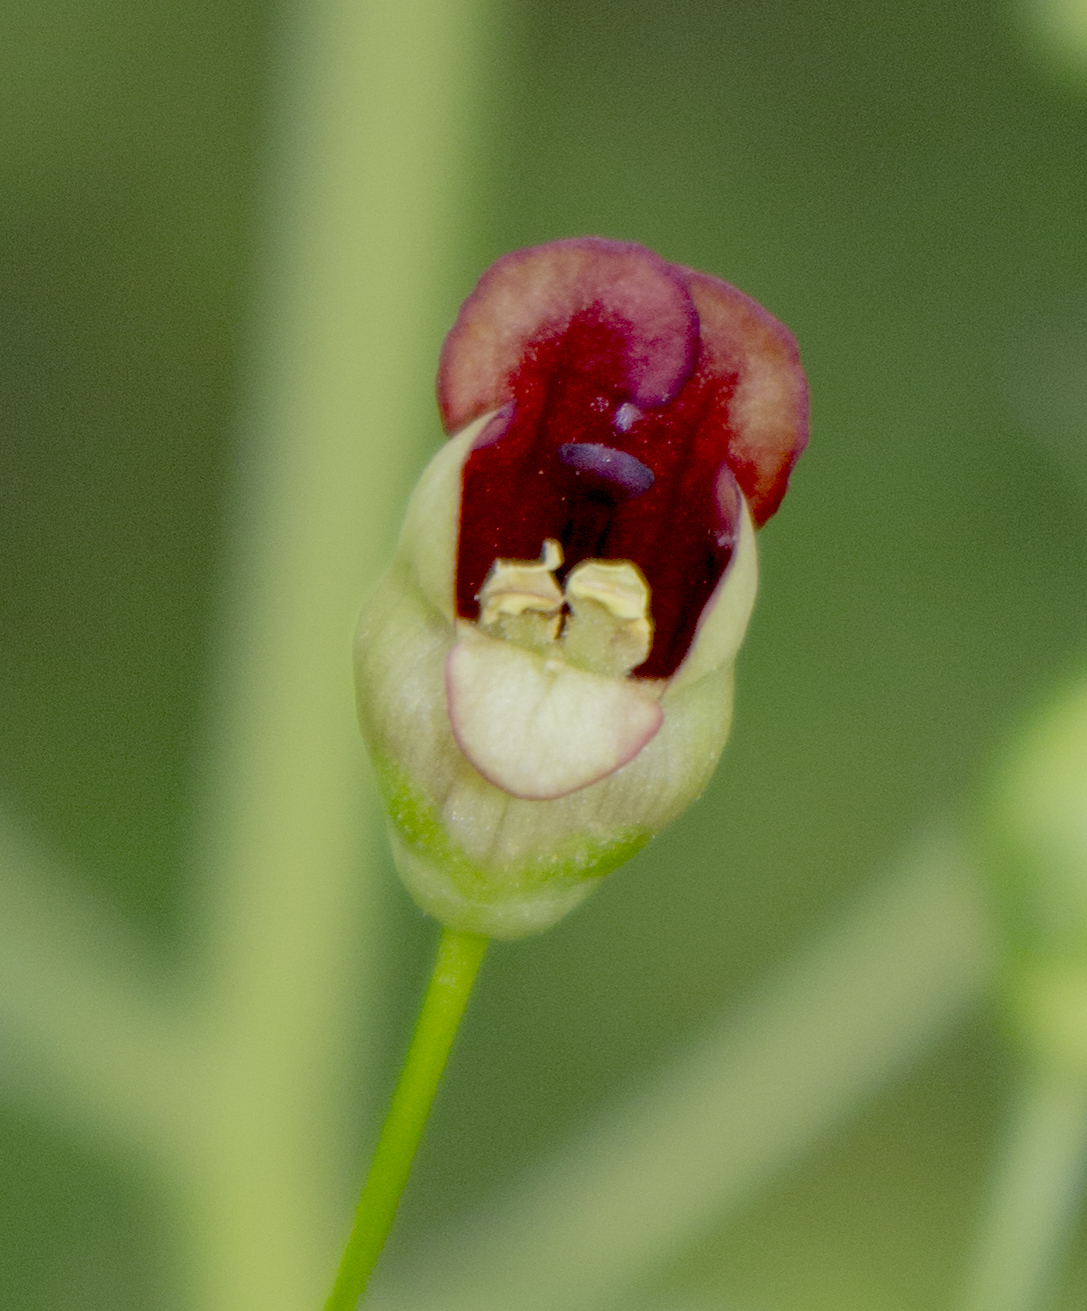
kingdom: Plantae
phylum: Tracheophyta
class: Magnoliopsida
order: Lamiales
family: Scrophulariaceae
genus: Scrophularia
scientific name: Scrophularia marilandica
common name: Eastern figwort
